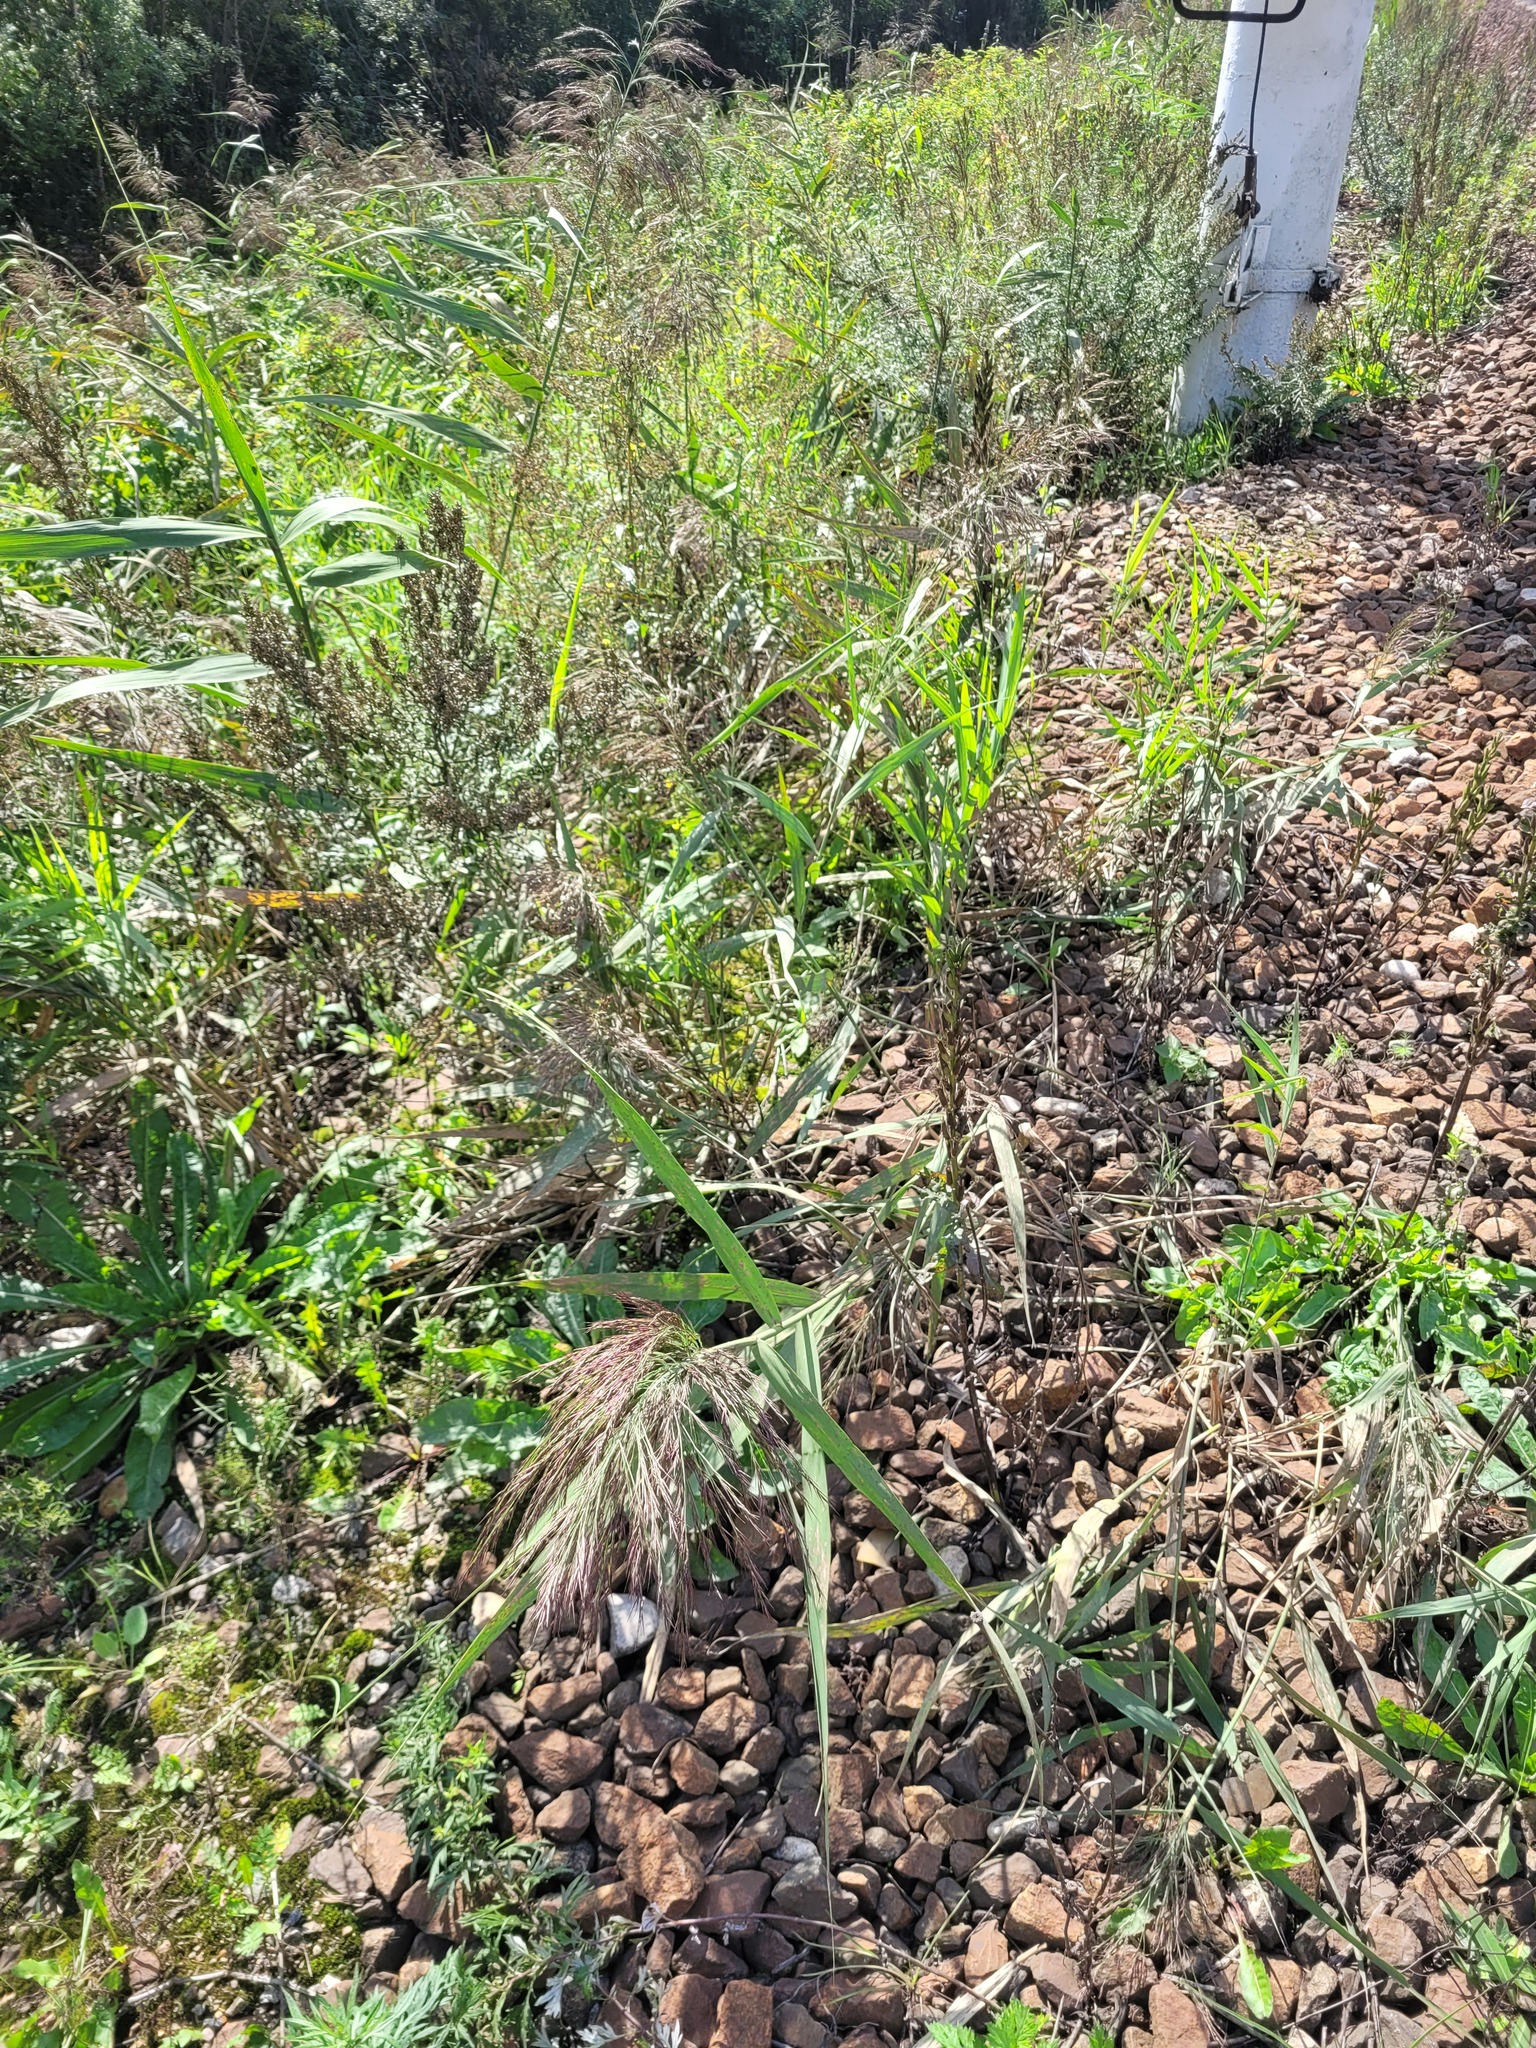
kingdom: Plantae
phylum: Tracheophyta
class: Liliopsida
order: Poales
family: Poaceae
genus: Phragmites
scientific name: Phragmites australis
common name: Common reed
